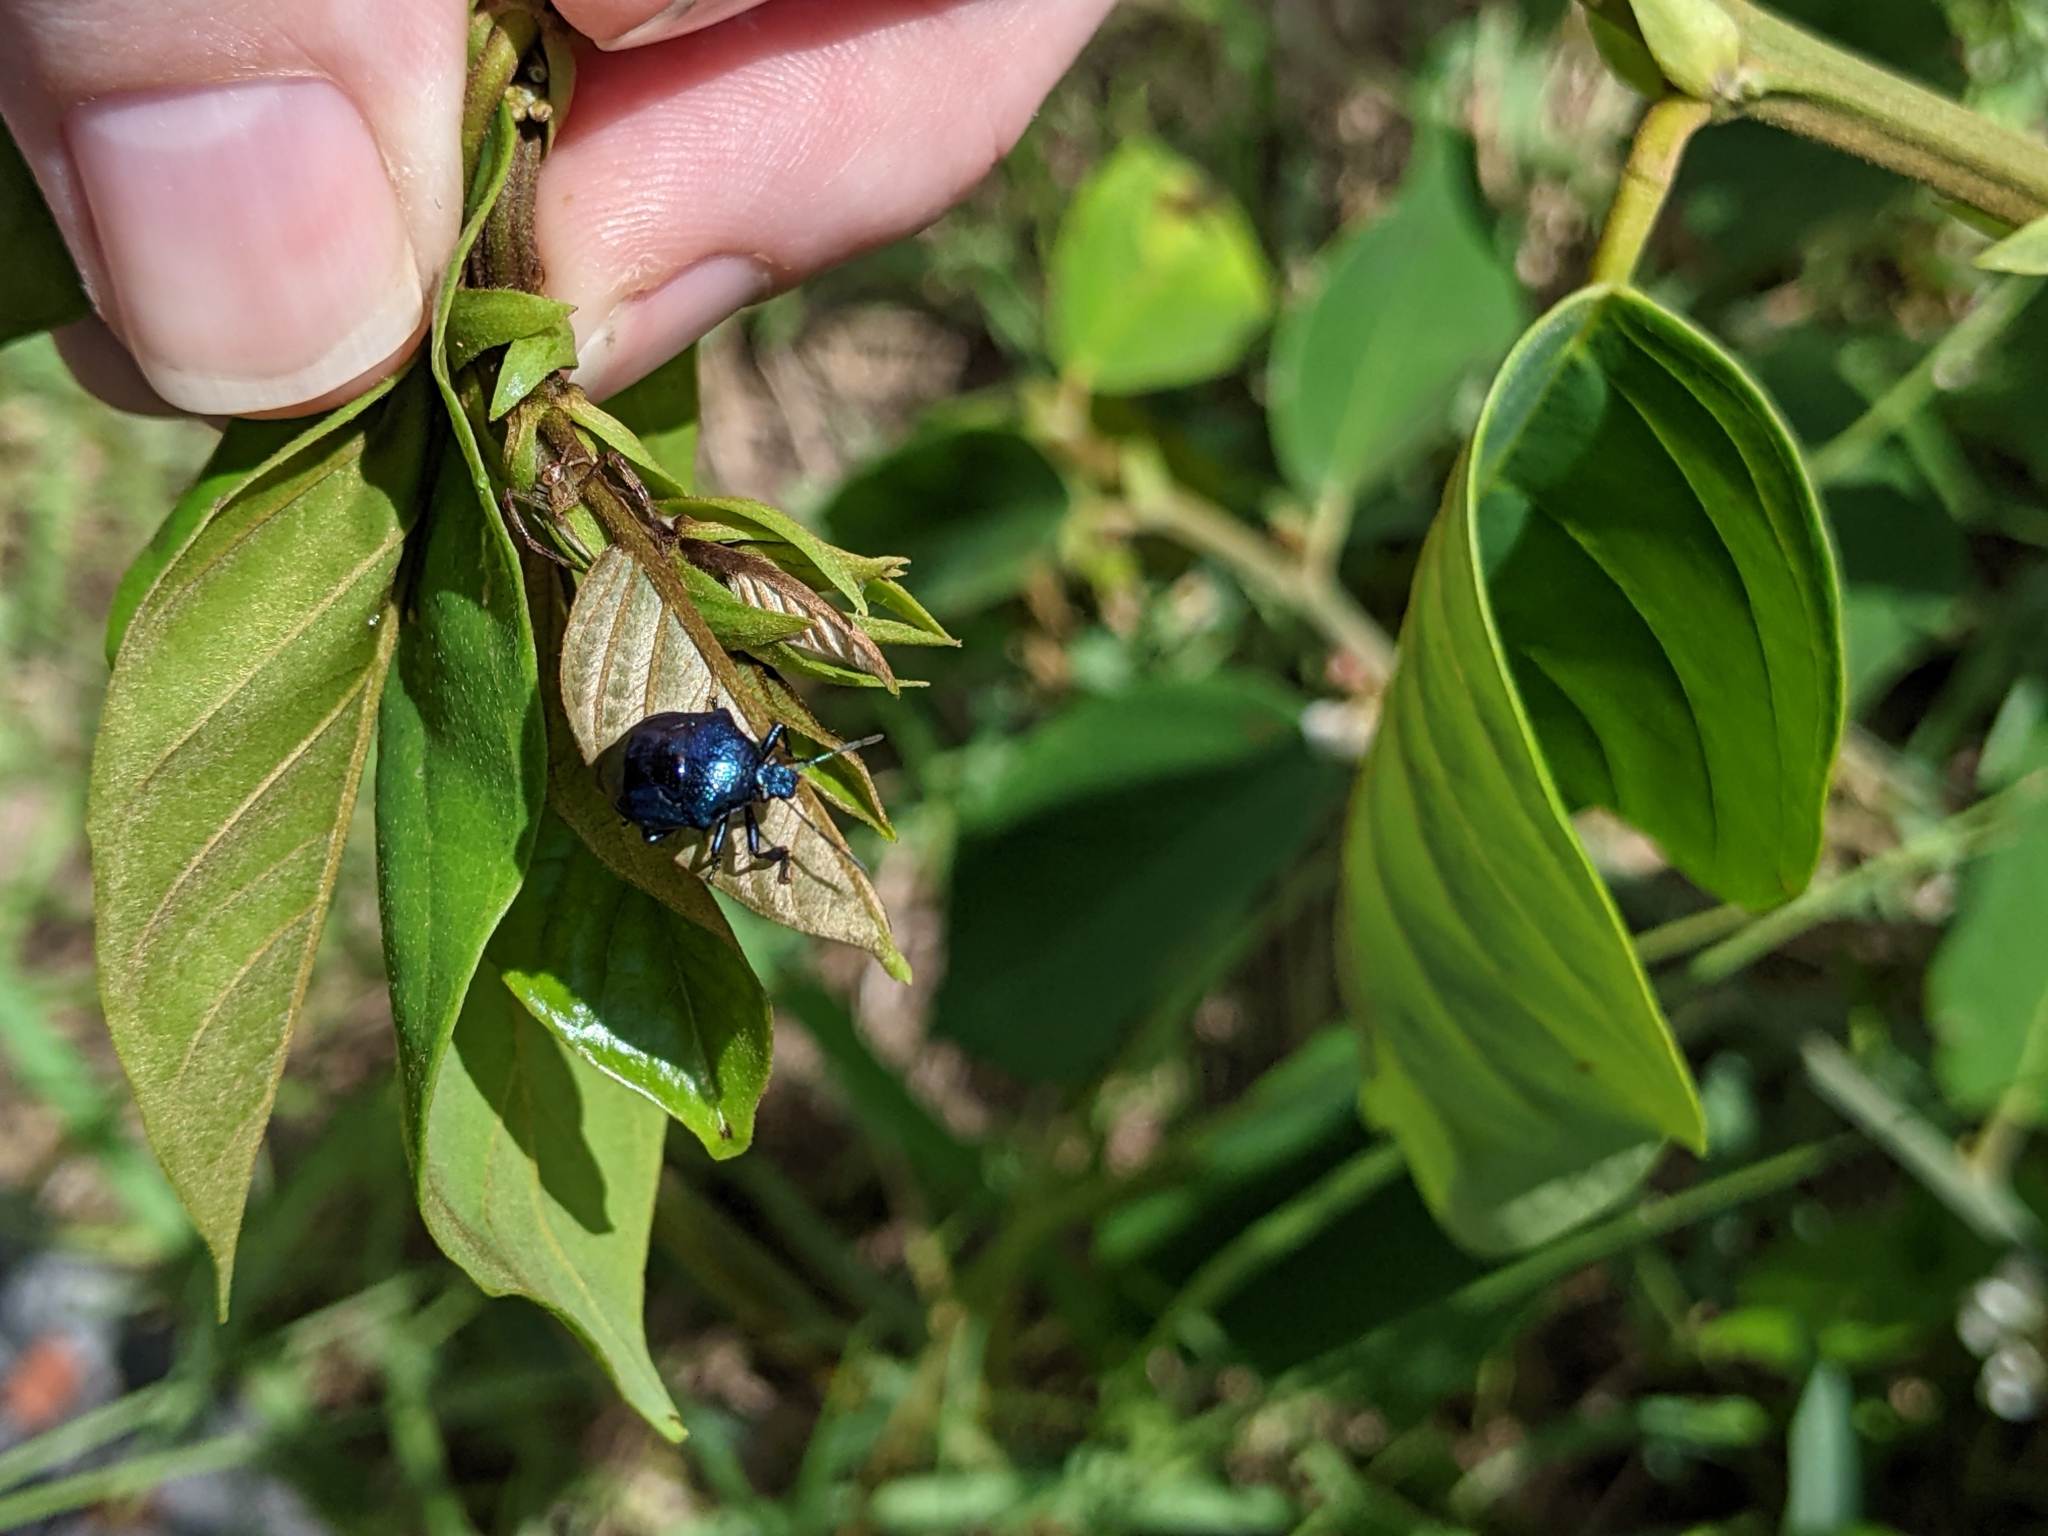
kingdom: Animalia
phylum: Arthropoda
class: Insecta
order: Hemiptera
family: Pentatomidae
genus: Stiretrus
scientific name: Stiretrus anchorago
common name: Anchor stink bug
